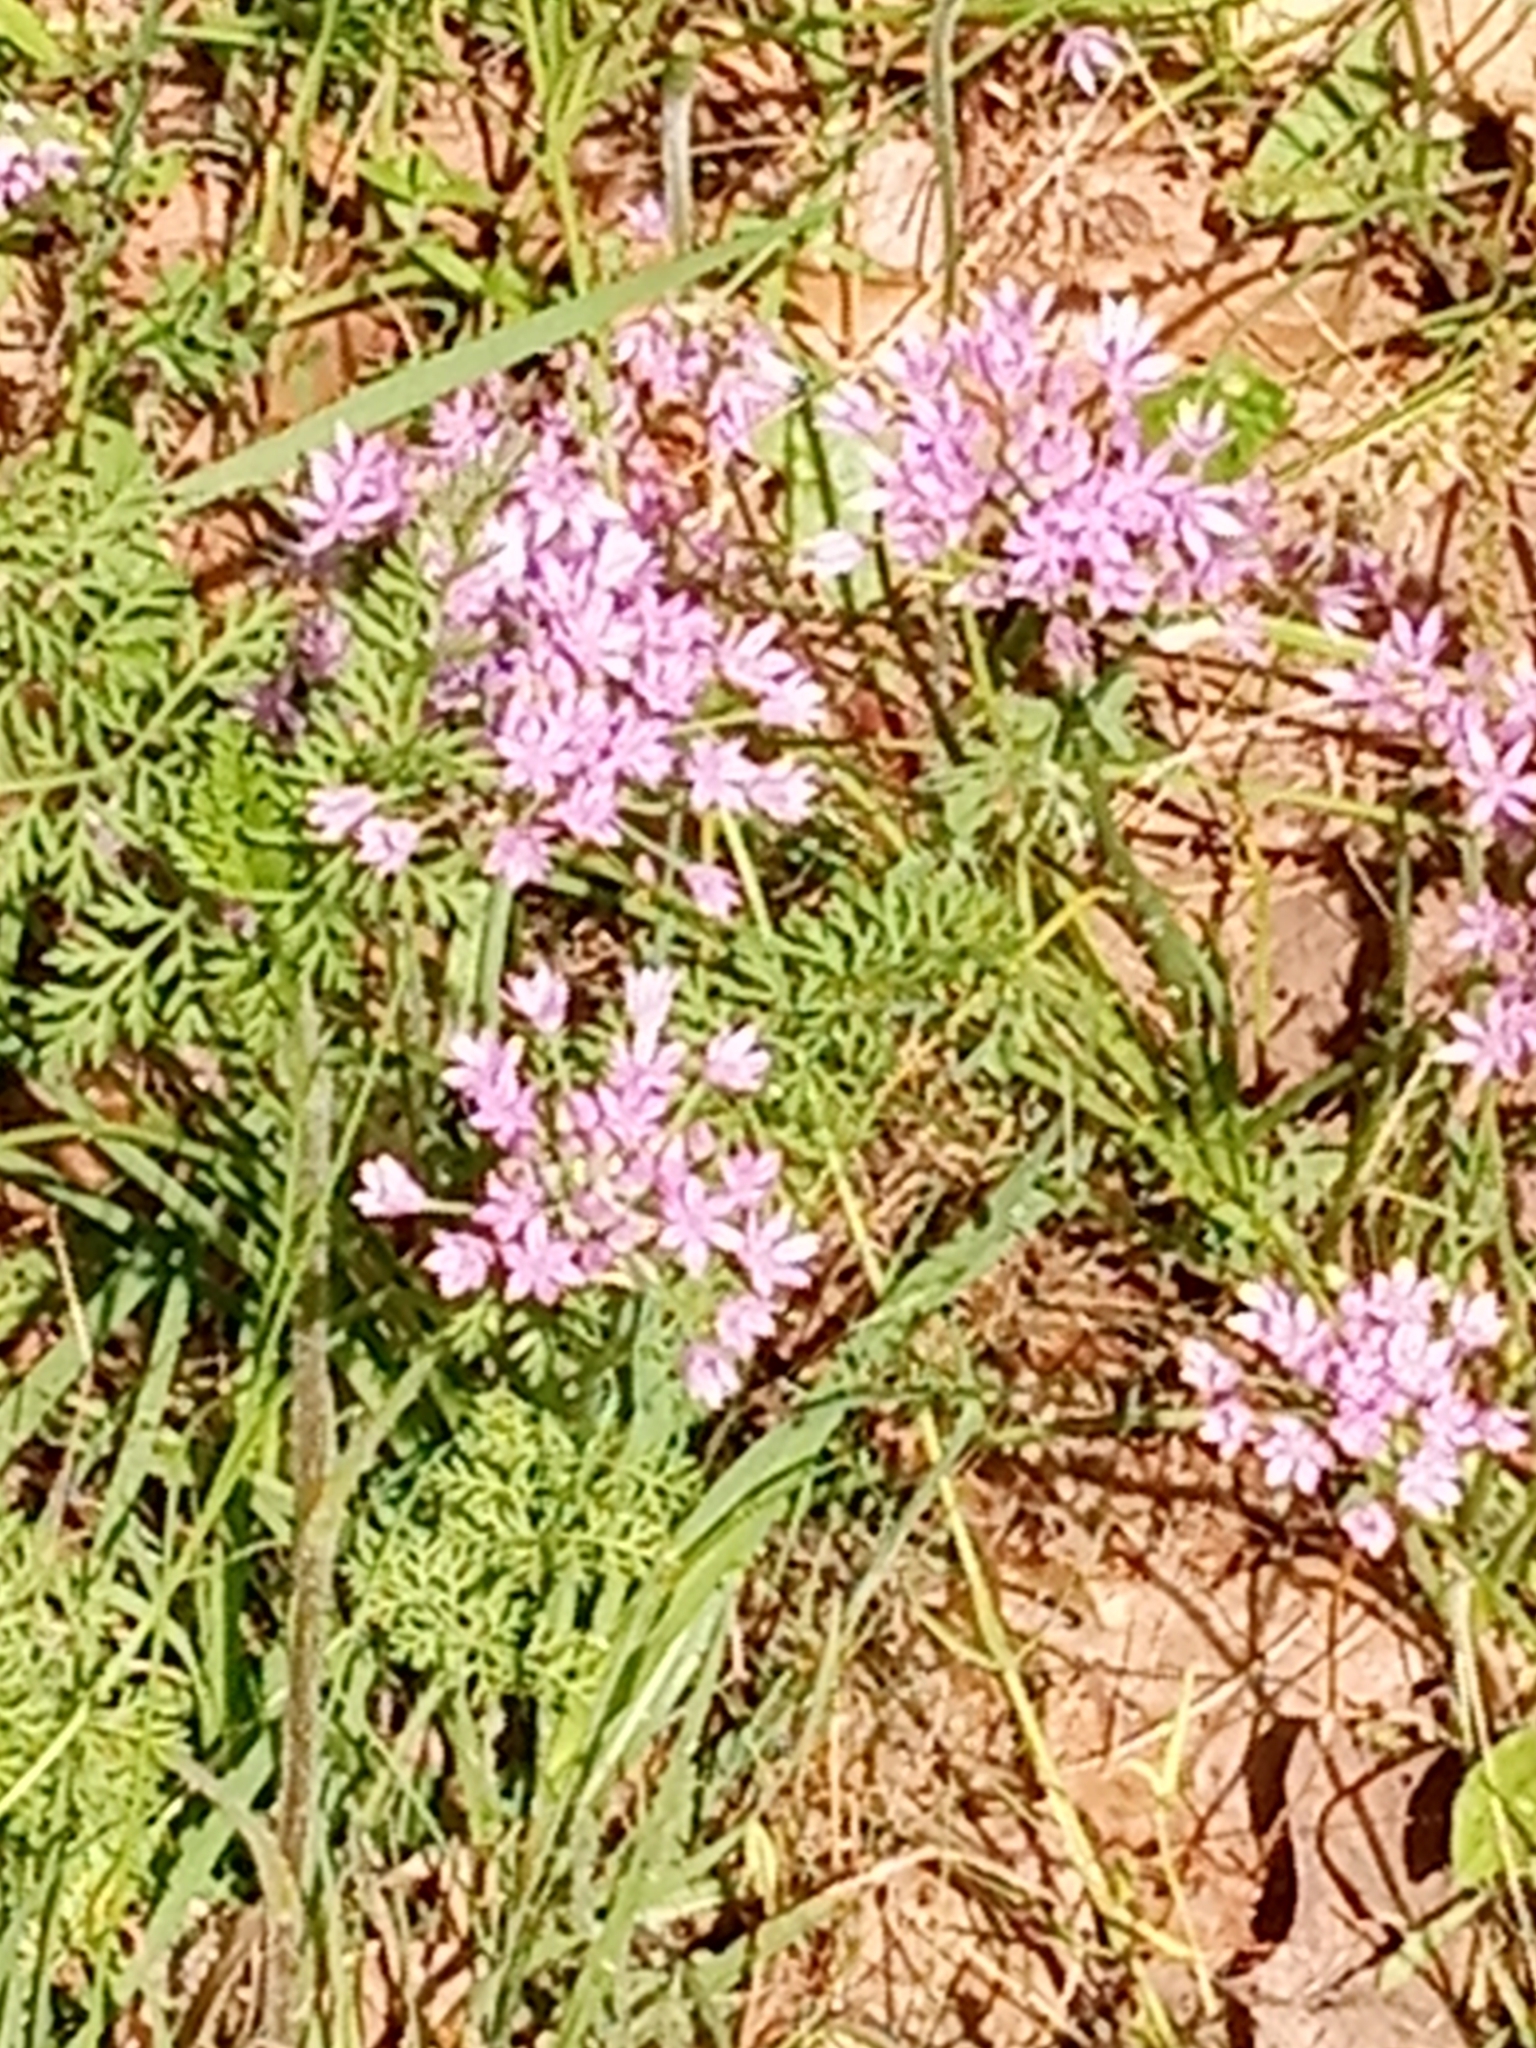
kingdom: Plantae
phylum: Tracheophyta
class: Liliopsida
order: Asparagales
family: Amaryllidaceae
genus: Allium
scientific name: Allium drummondii
